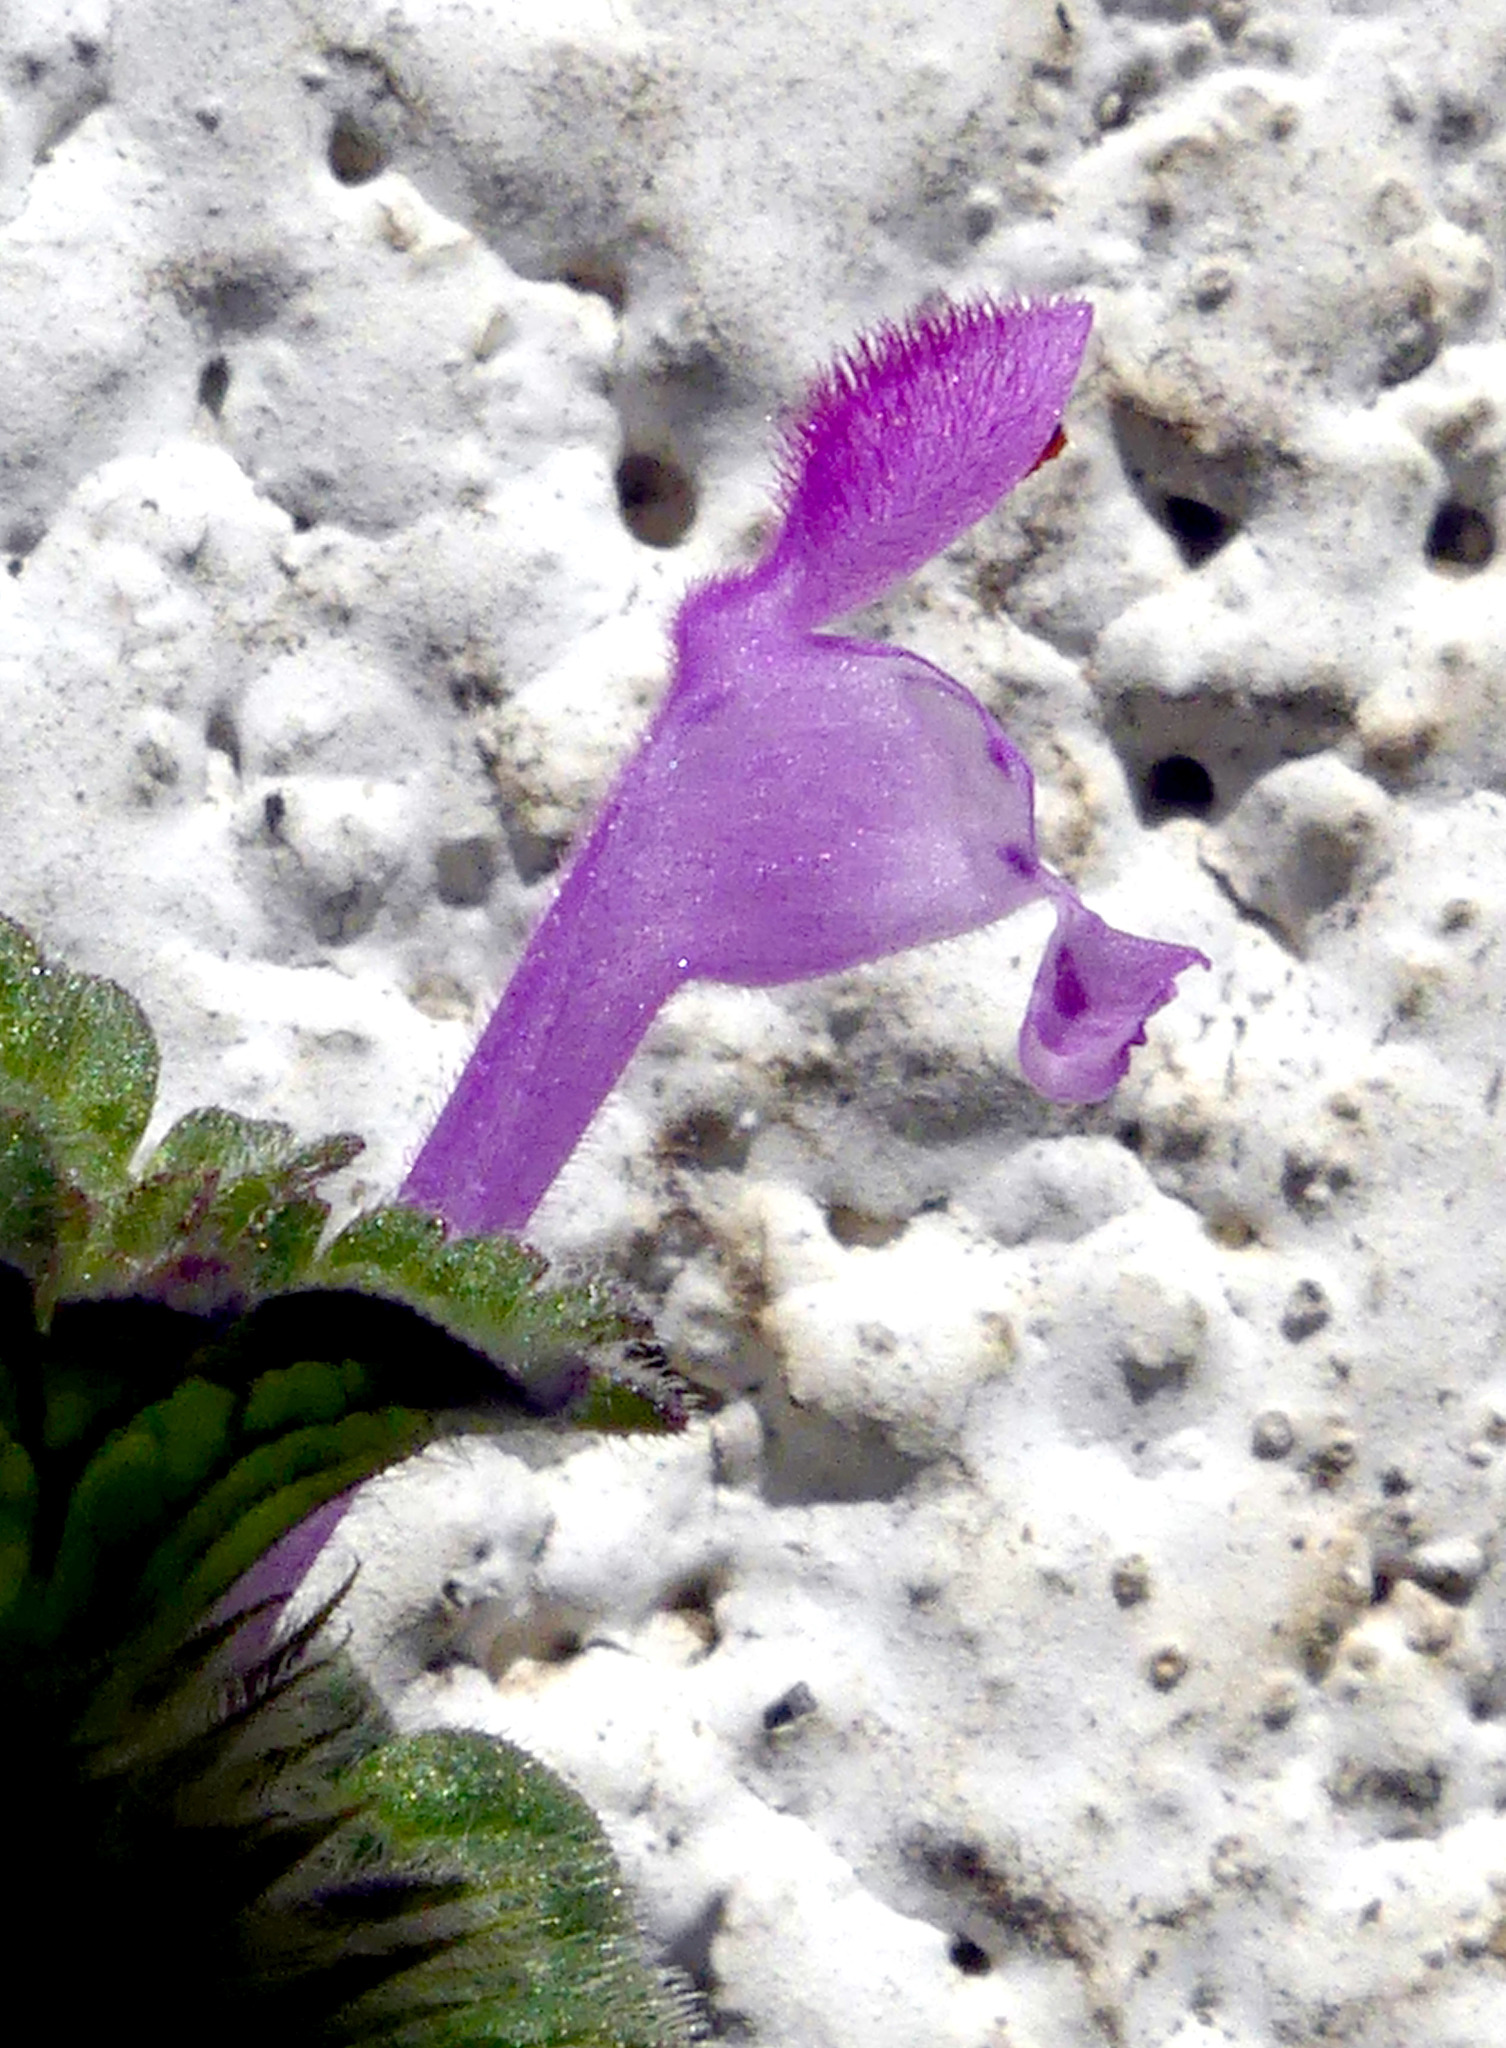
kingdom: Plantae
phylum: Tracheophyta
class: Magnoliopsida
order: Lamiales
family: Lamiaceae
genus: Lamium
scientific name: Lamium amplexicaule
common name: Henbit dead-nettle
